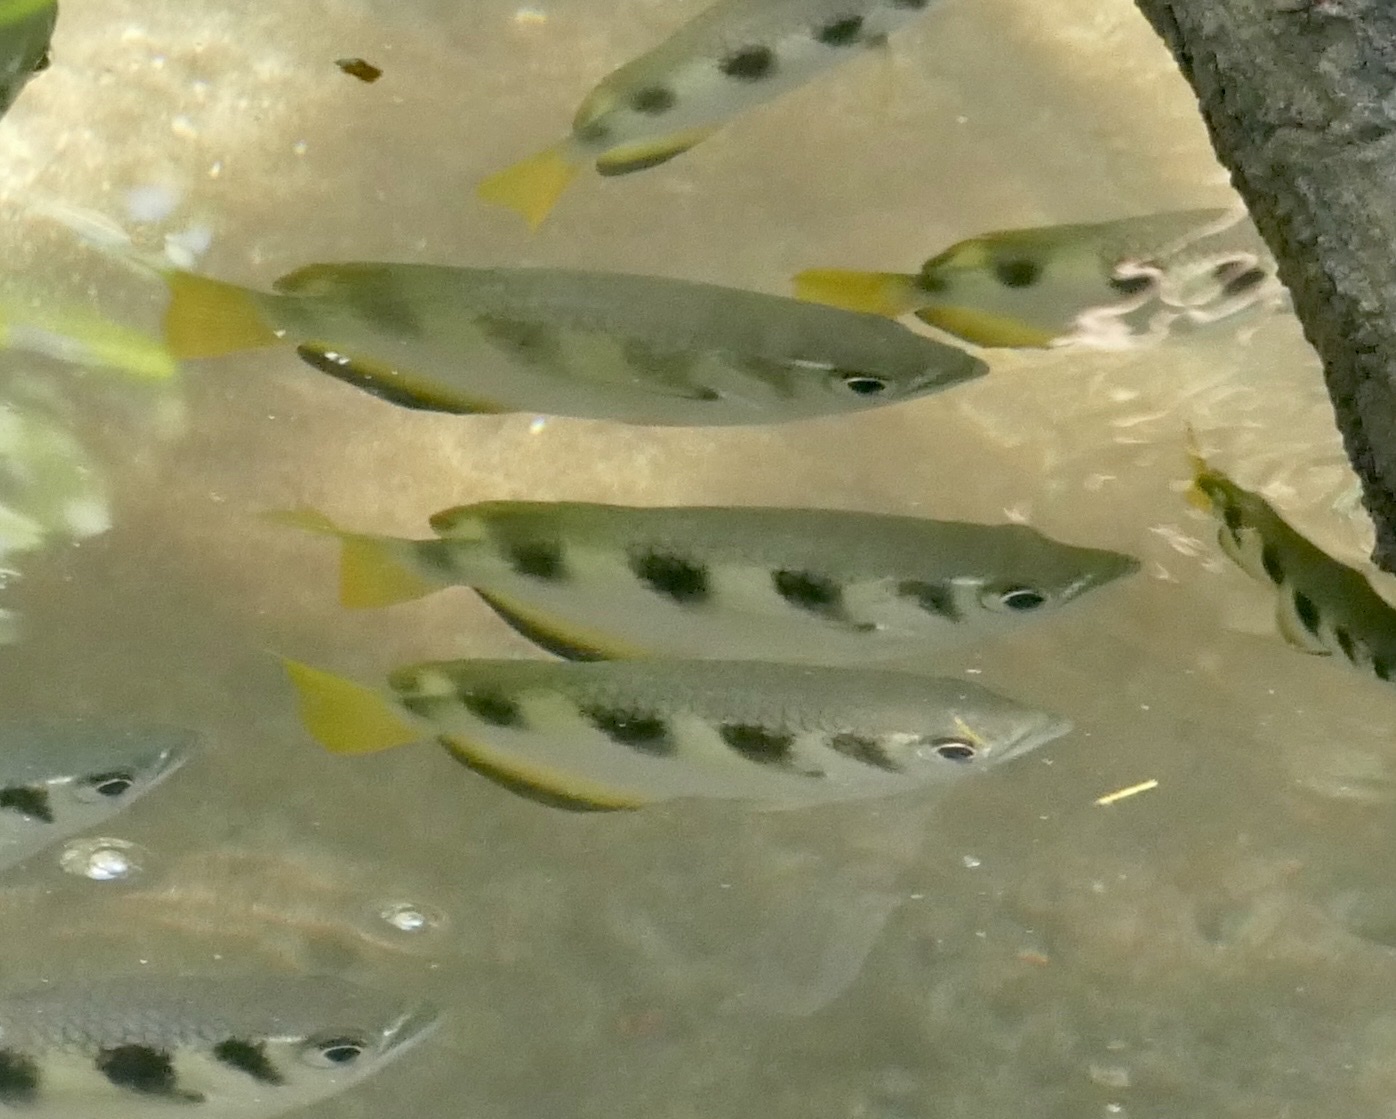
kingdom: Animalia
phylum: Chordata
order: Perciformes
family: Toxotidae
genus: Toxotes
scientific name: Toxotes jaculatrix
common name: Banded archerfish
